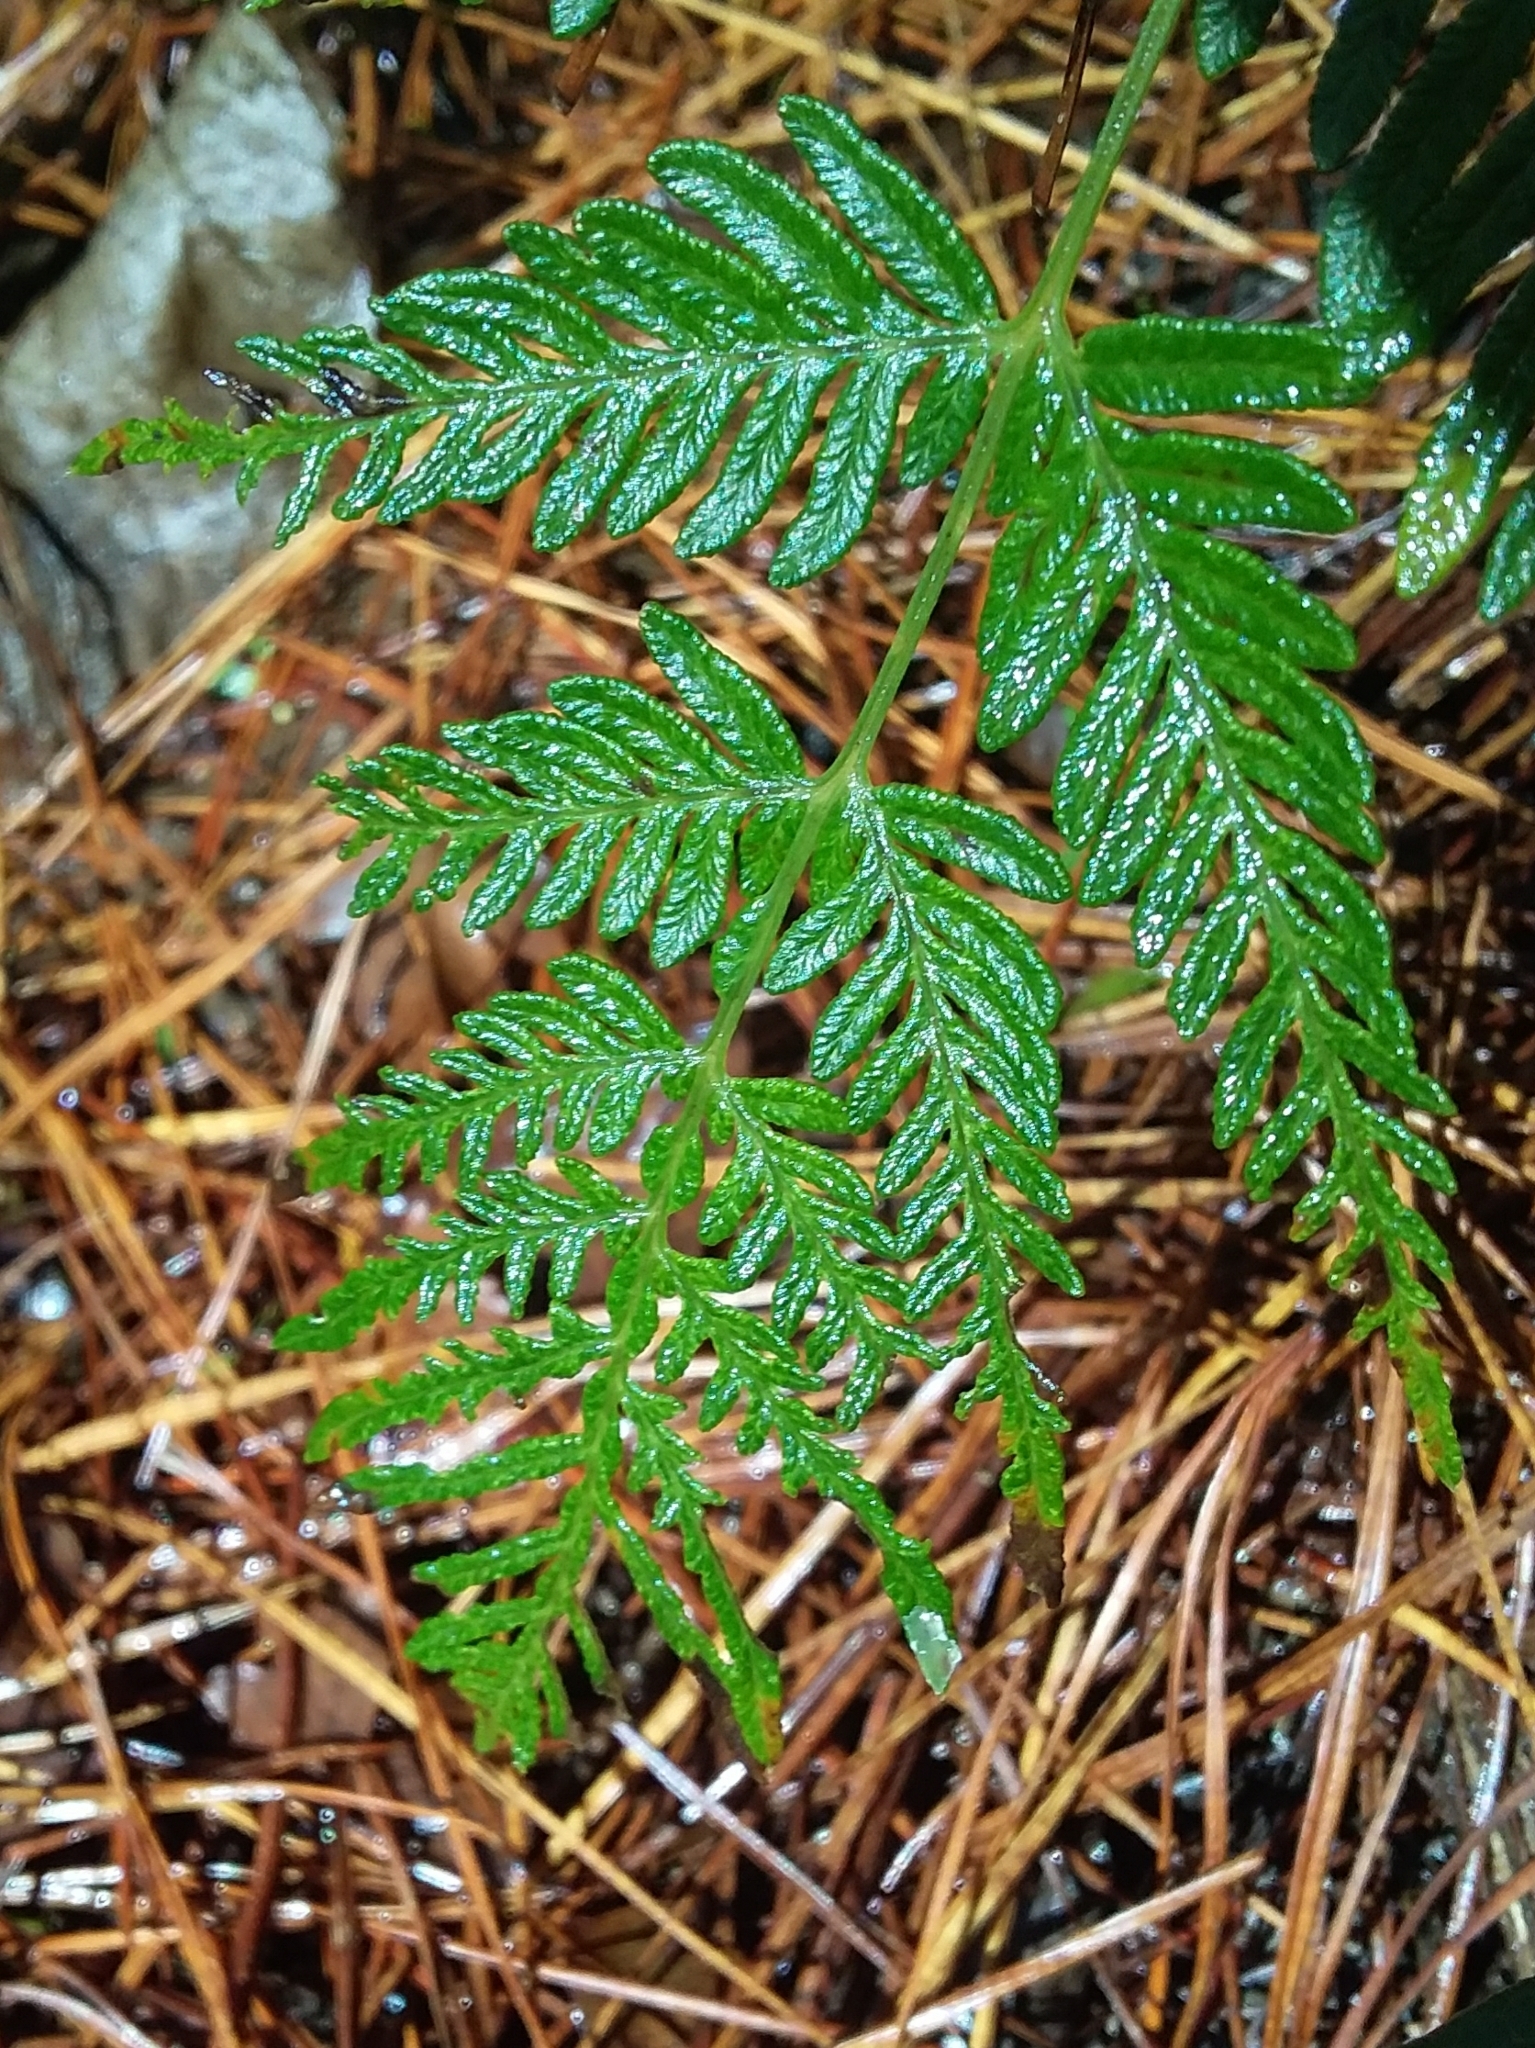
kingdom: Plantae
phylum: Tracheophyta
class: Polypodiopsida
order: Polypodiales
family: Dennstaedtiaceae
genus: Pteridium
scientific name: Pteridium esculentum
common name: Bracken fern
